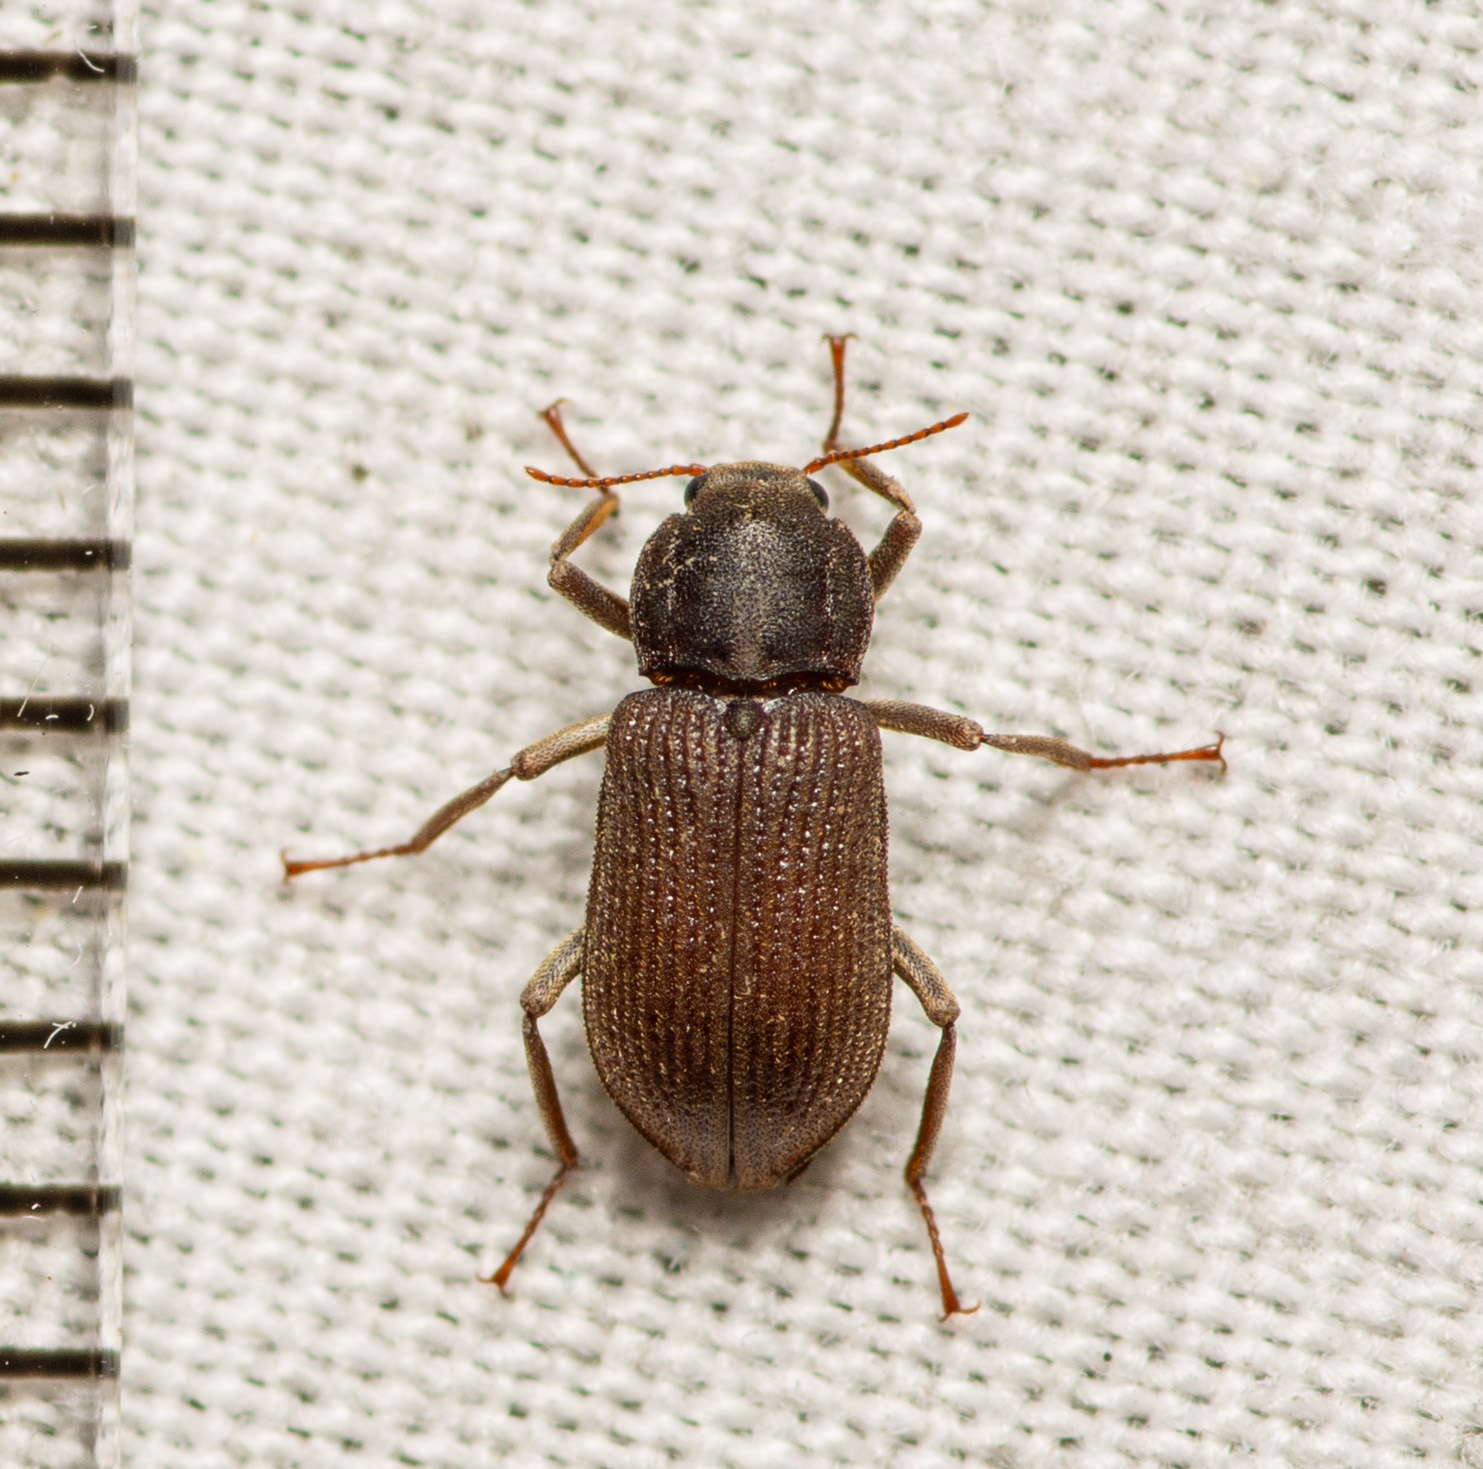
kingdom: Animalia
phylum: Arthropoda
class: Insecta
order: Coleoptera
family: Elmidae
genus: Macrelmis
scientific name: Macrelmis texana
